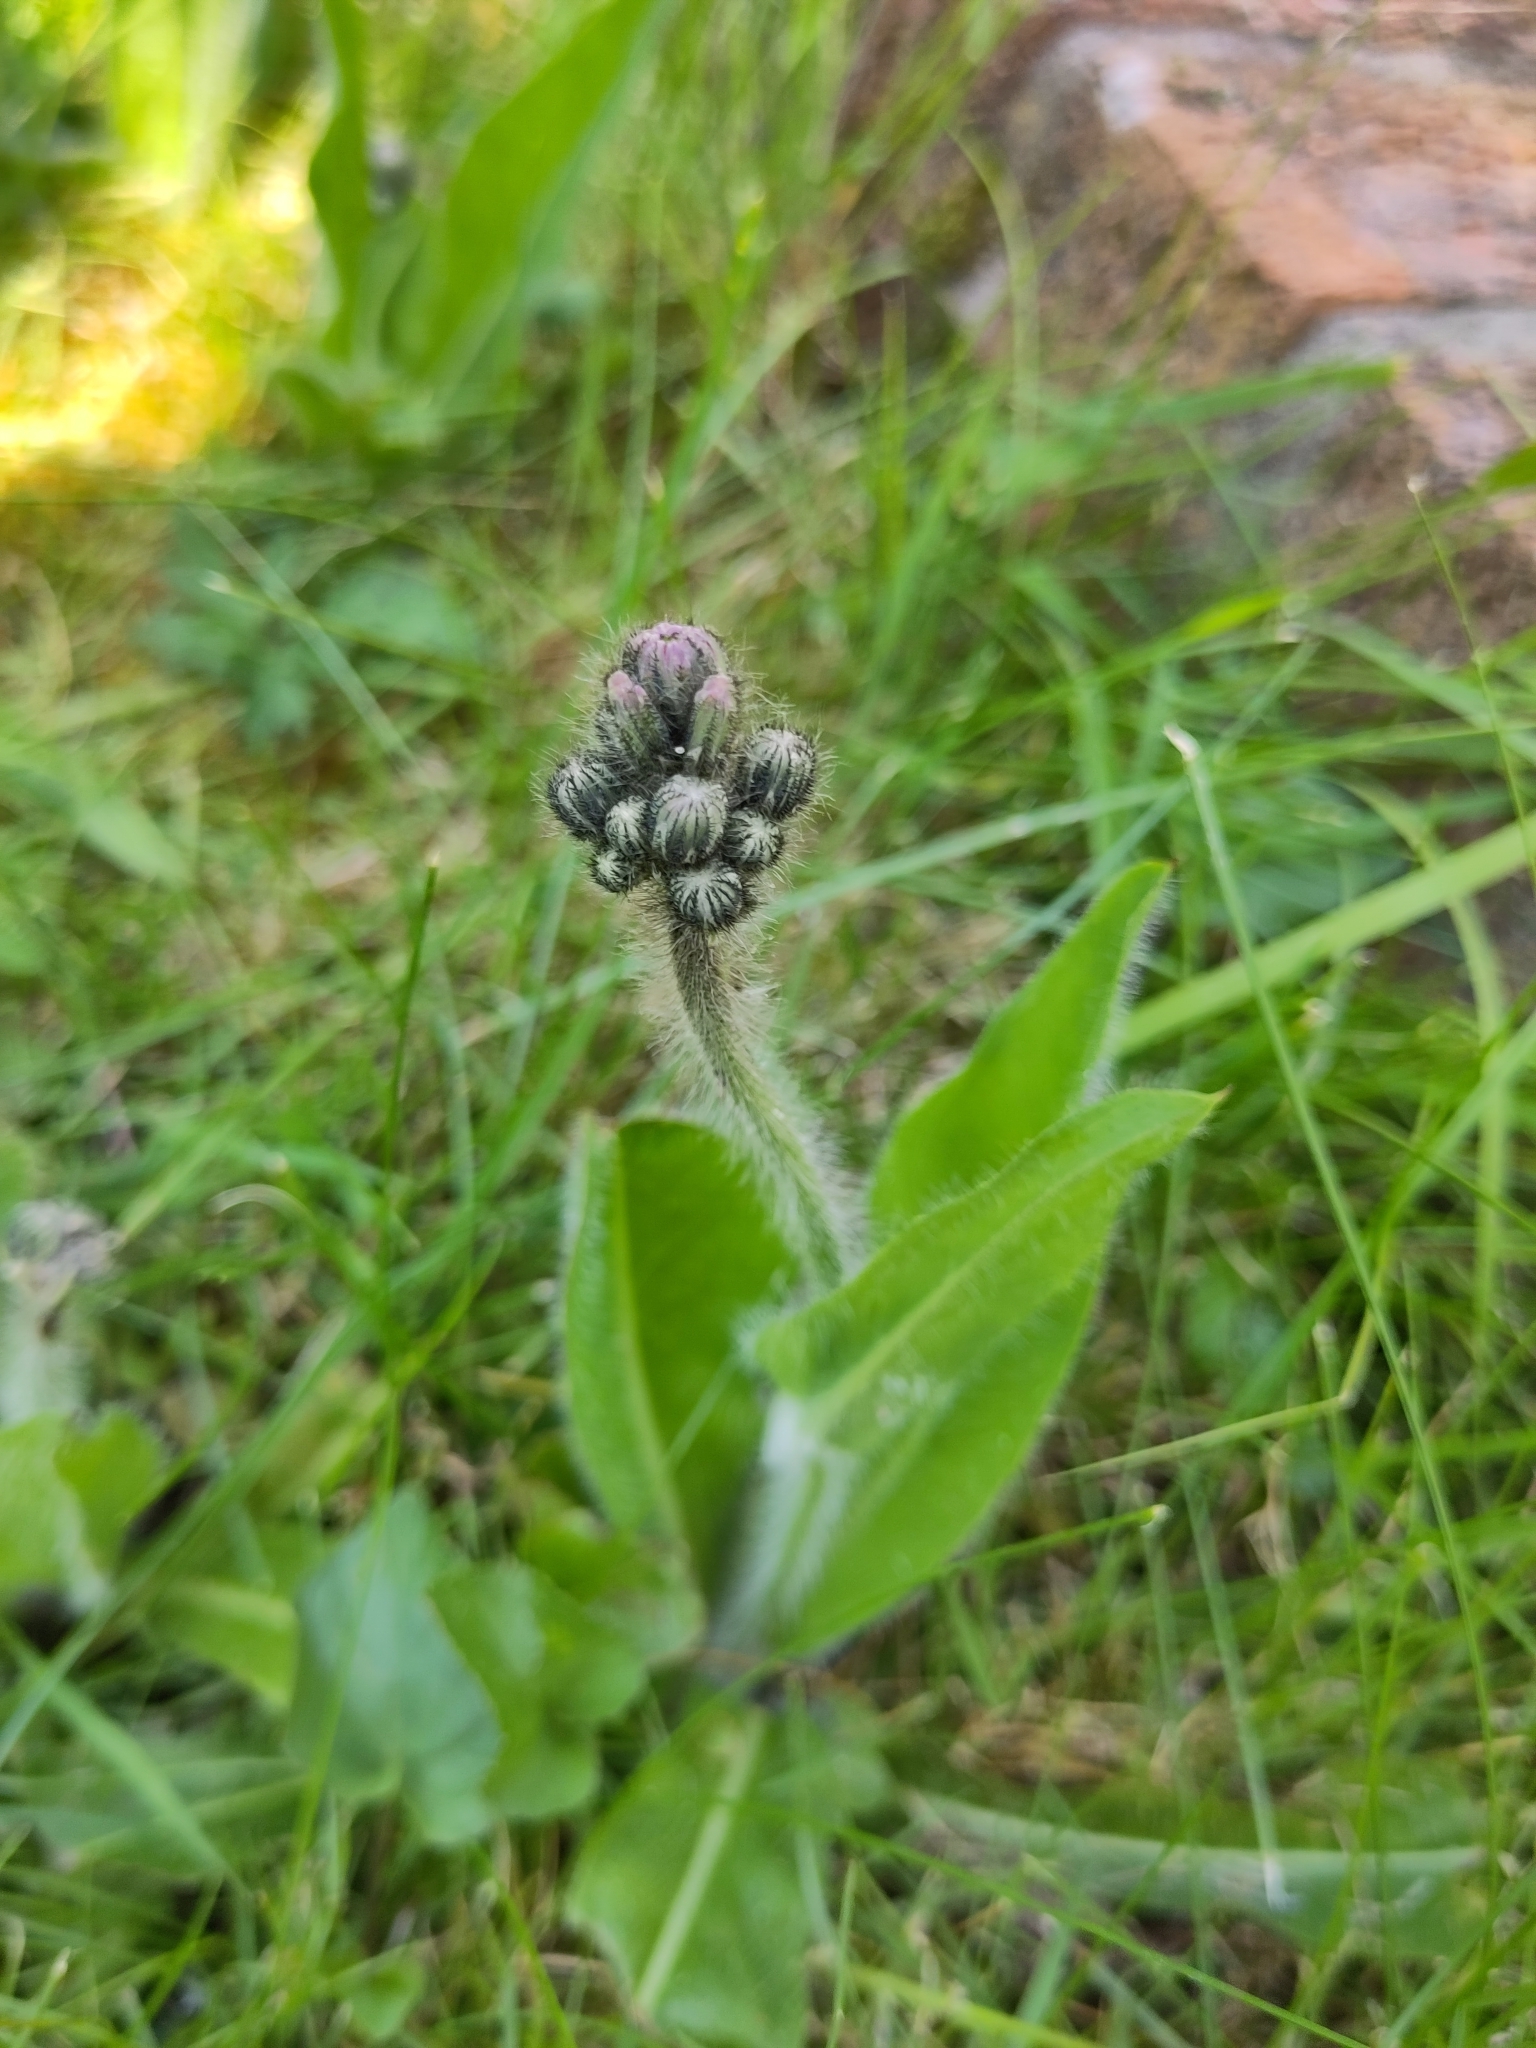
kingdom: Plantae
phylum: Tracheophyta
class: Magnoliopsida
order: Asterales
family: Asteraceae
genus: Pilosella
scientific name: Pilosella aurantiaca
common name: Fox-and-cubs
